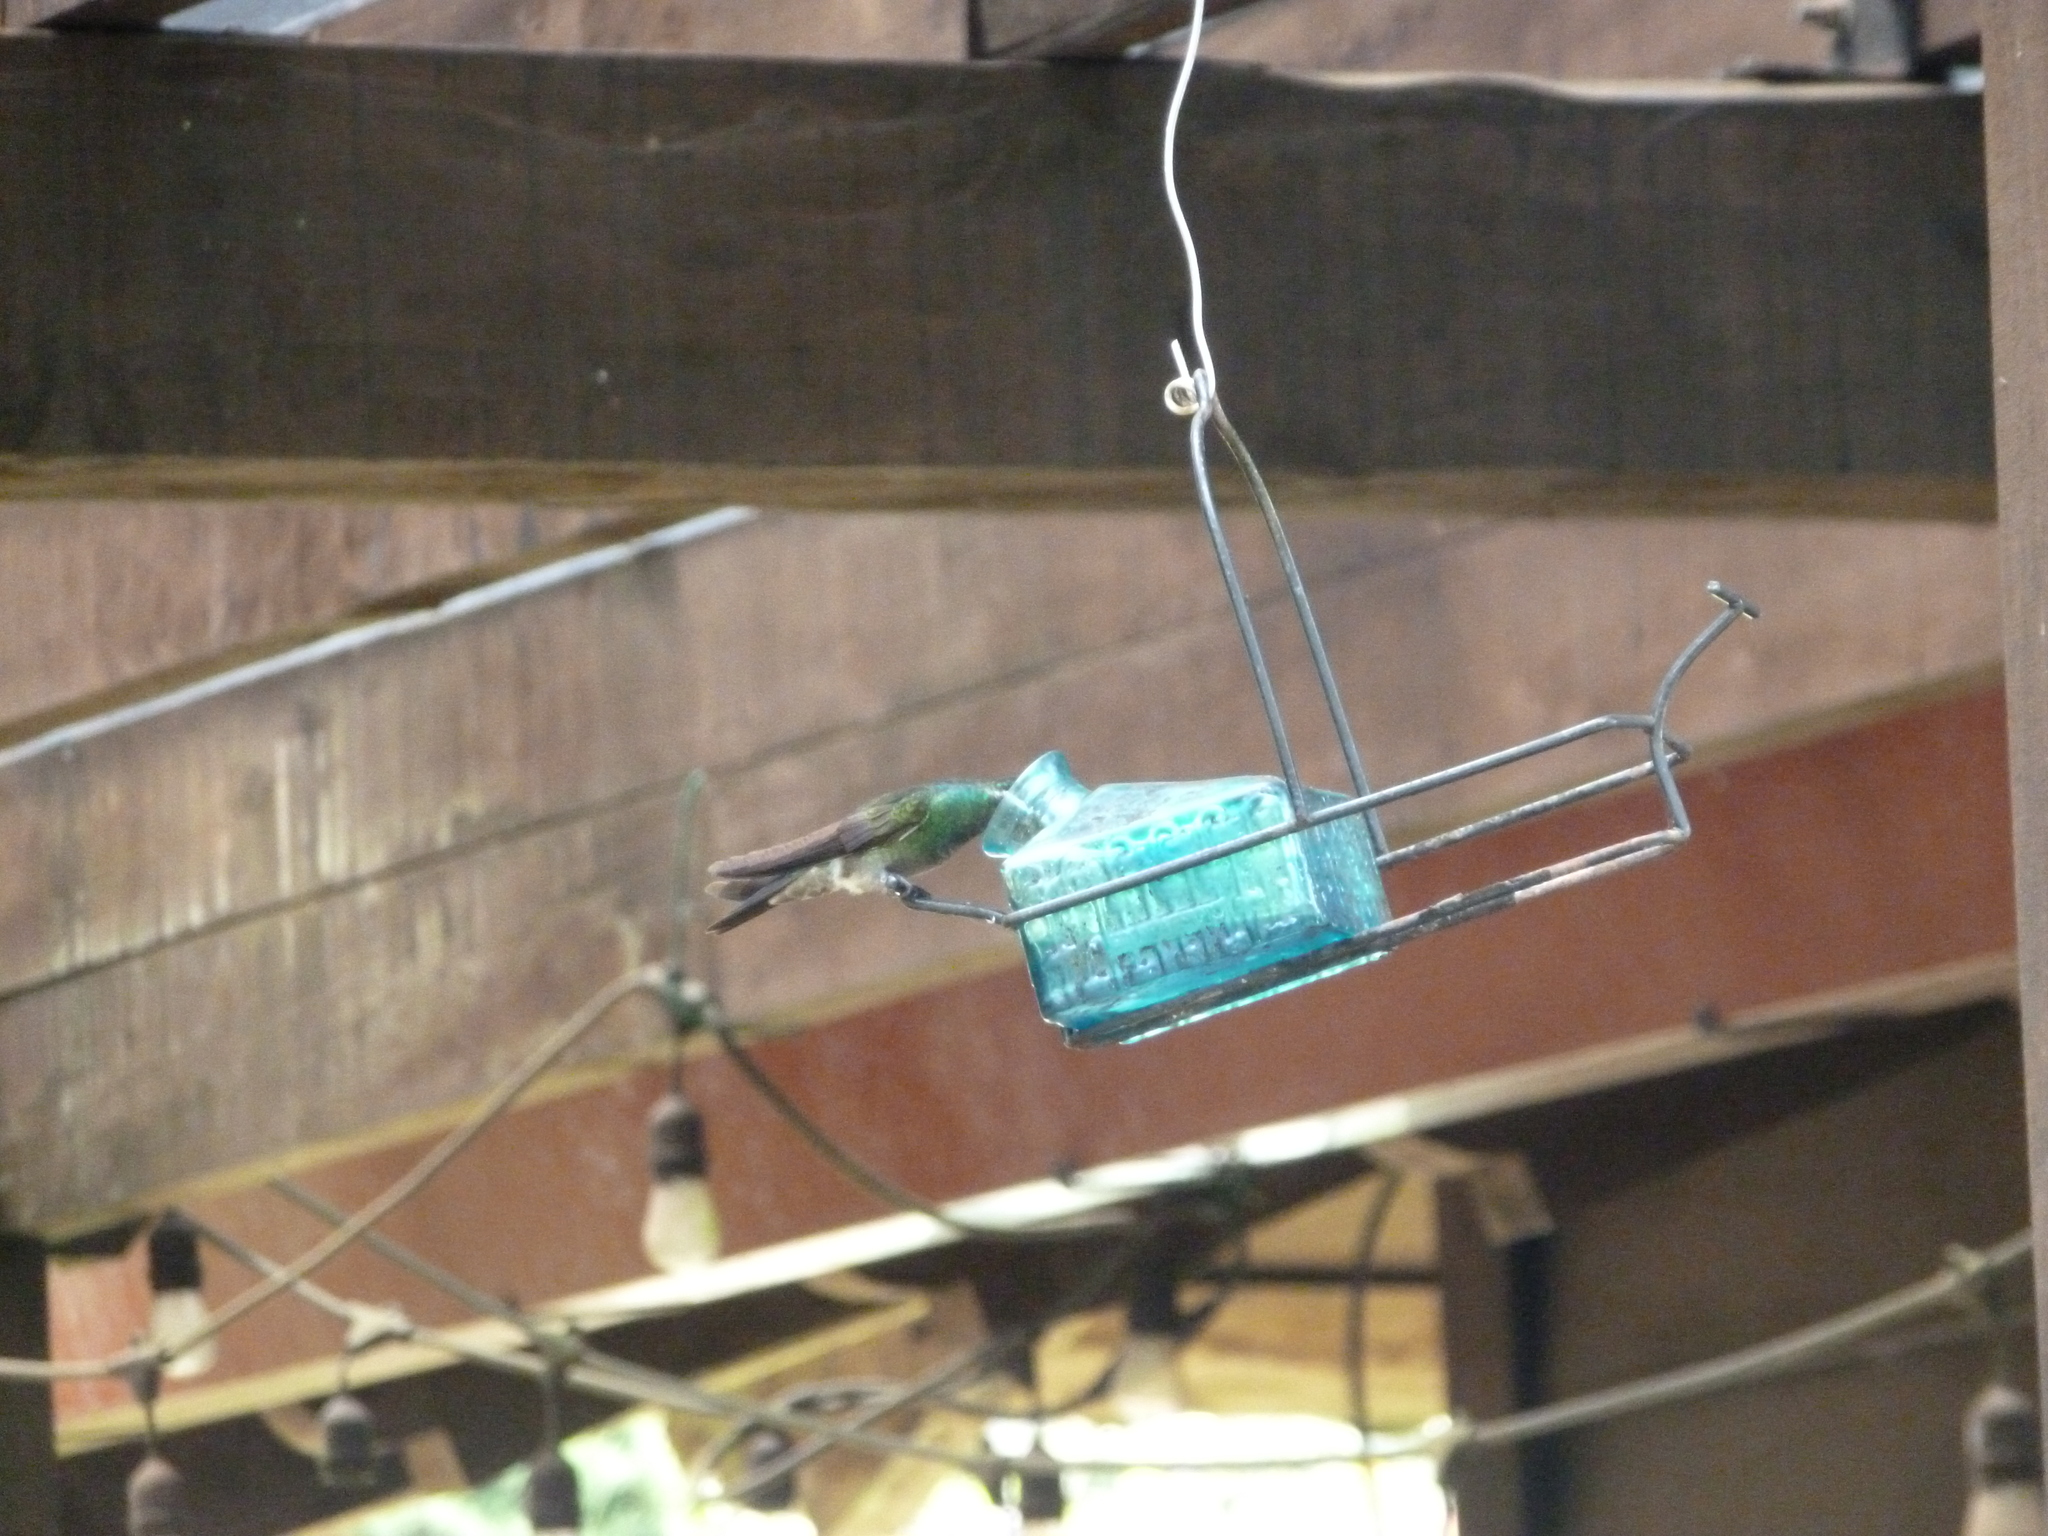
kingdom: Animalia
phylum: Chordata
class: Aves
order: Apodiformes
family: Trochilidae
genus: Lampornis
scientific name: Lampornis calolaemus
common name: Purple-throated mountain-gem
